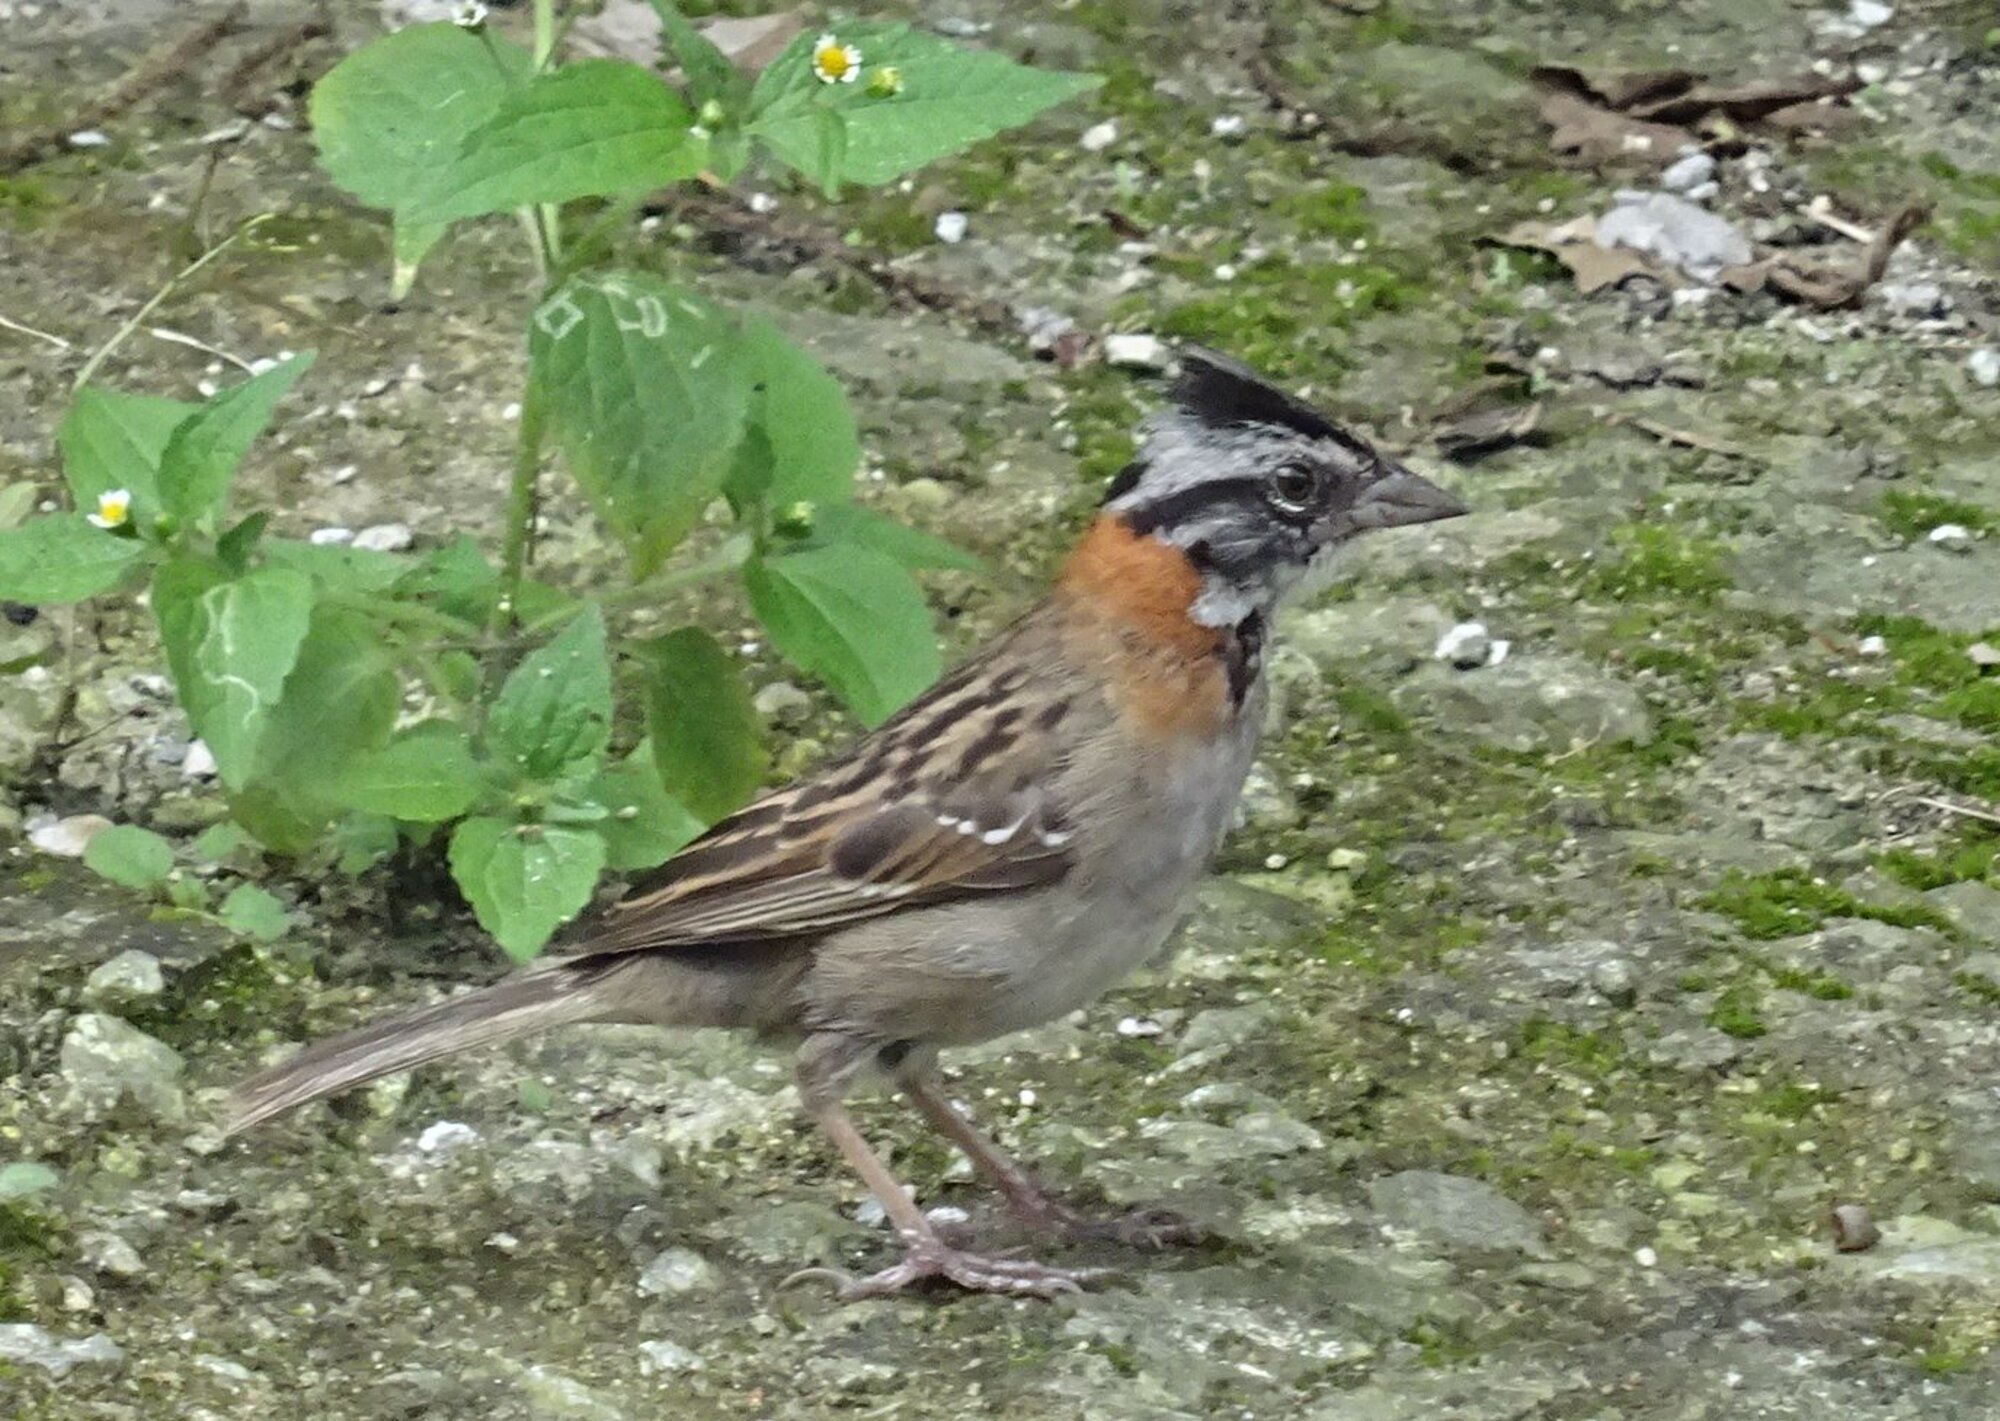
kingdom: Animalia
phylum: Chordata
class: Aves
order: Passeriformes
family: Passerellidae
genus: Zonotrichia
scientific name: Zonotrichia capensis
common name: Rufous-collared sparrow
